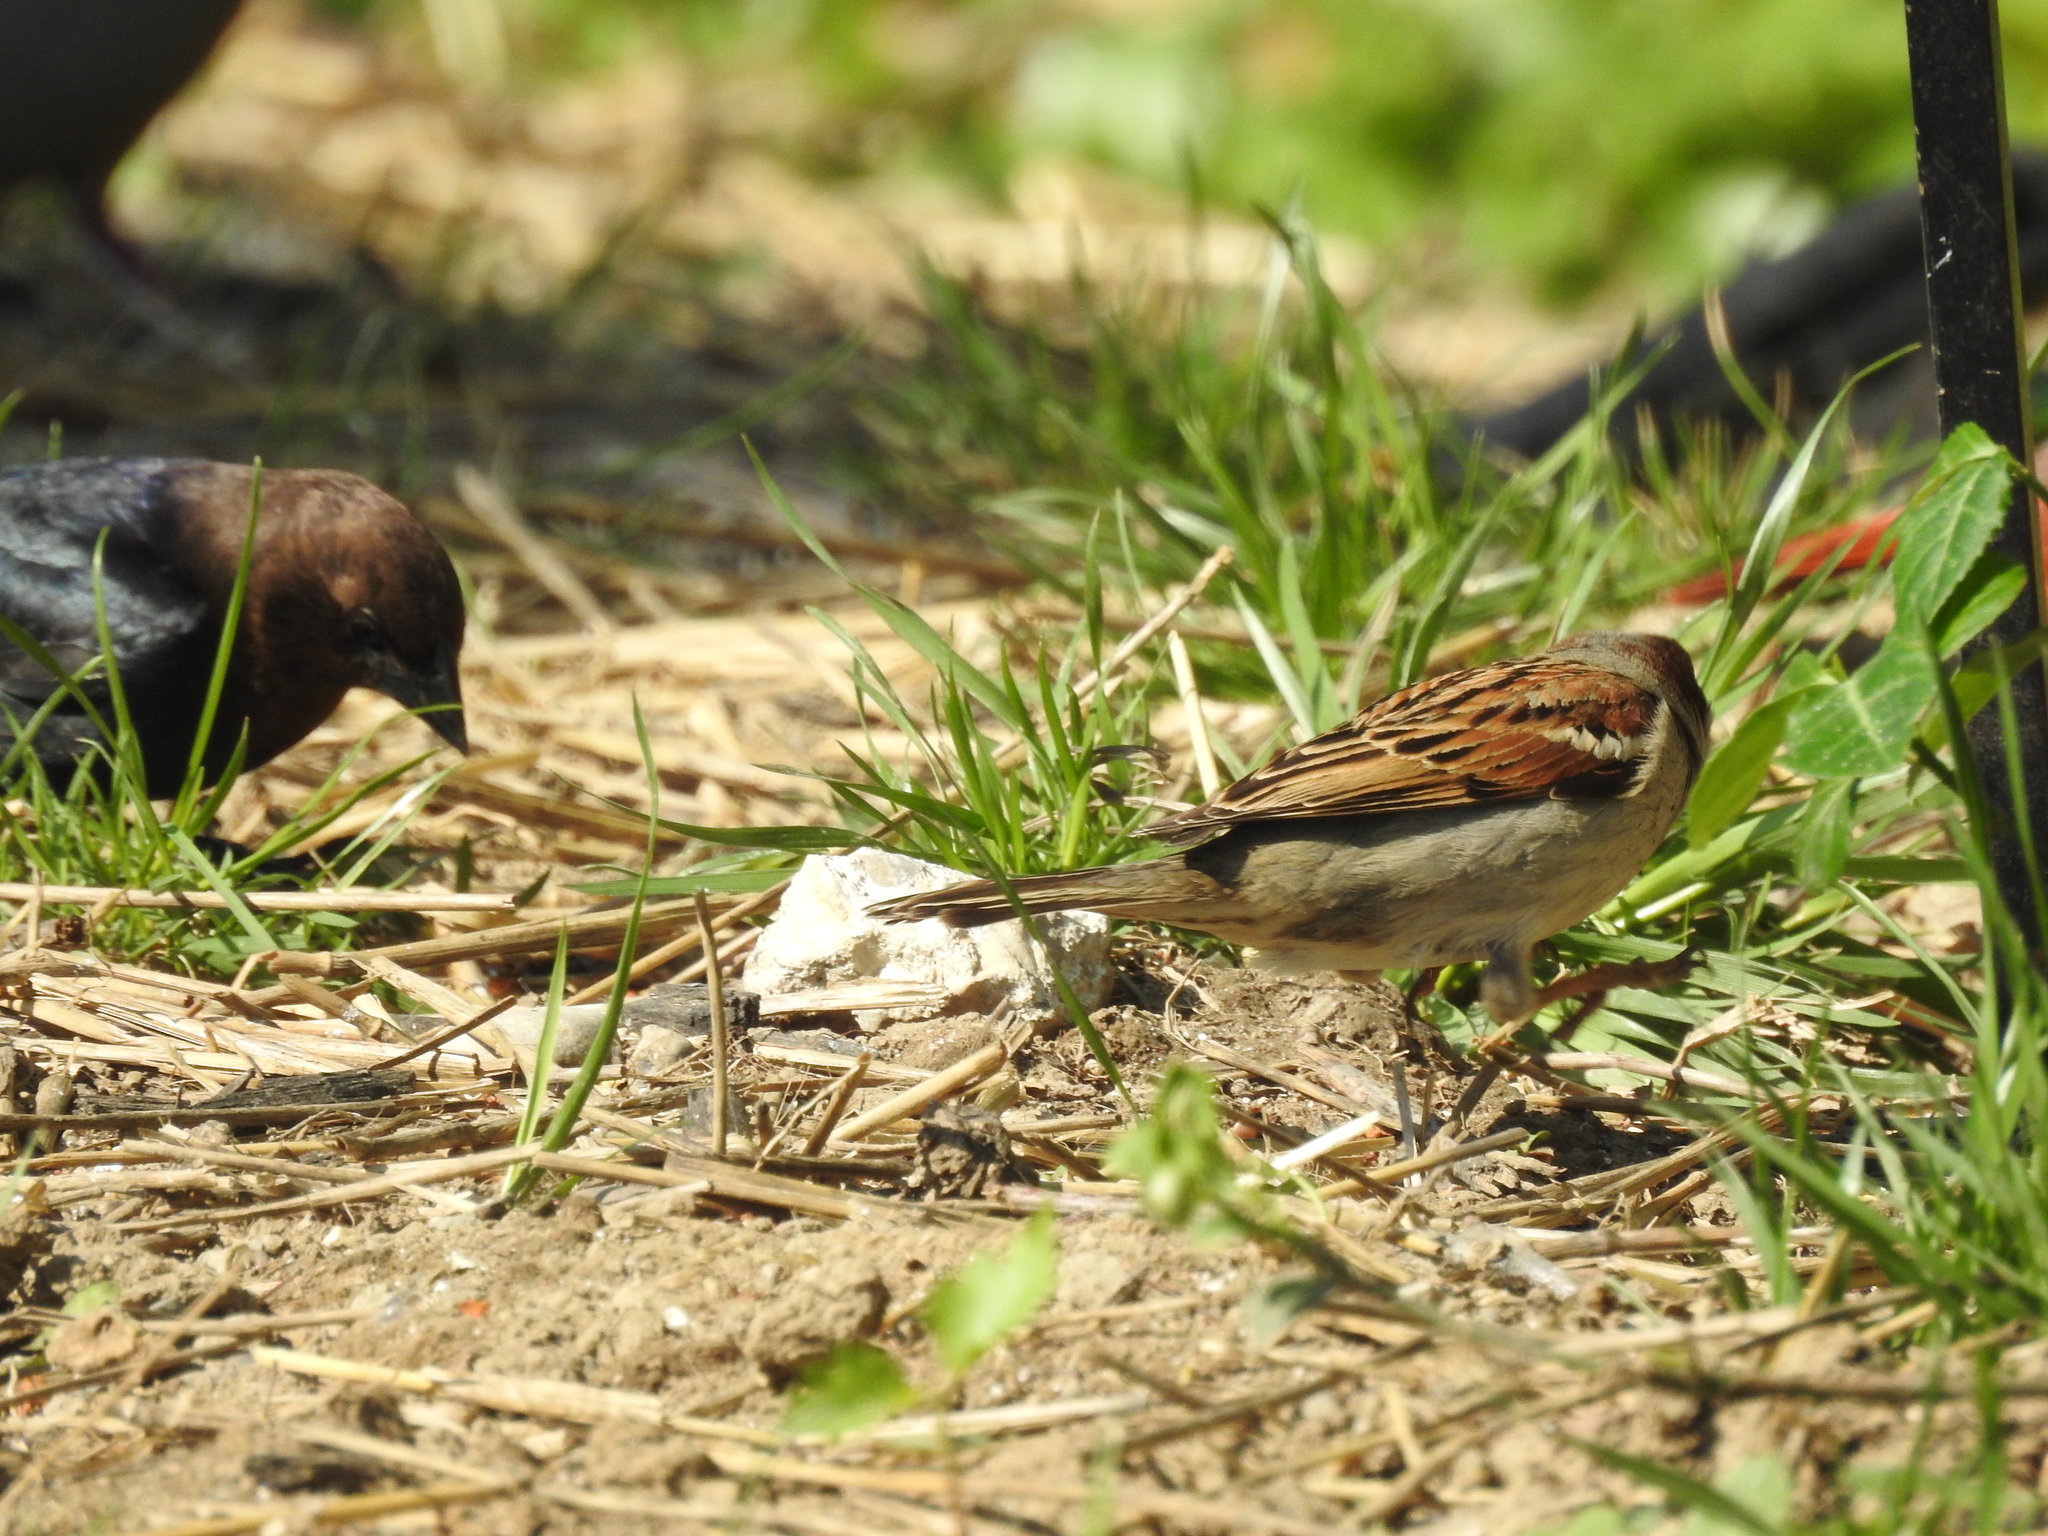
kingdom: Animalia
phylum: Chordata
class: Aves
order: Passeriformes
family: Passeridae
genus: Passer
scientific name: Passer domesticus
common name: House sparrow
